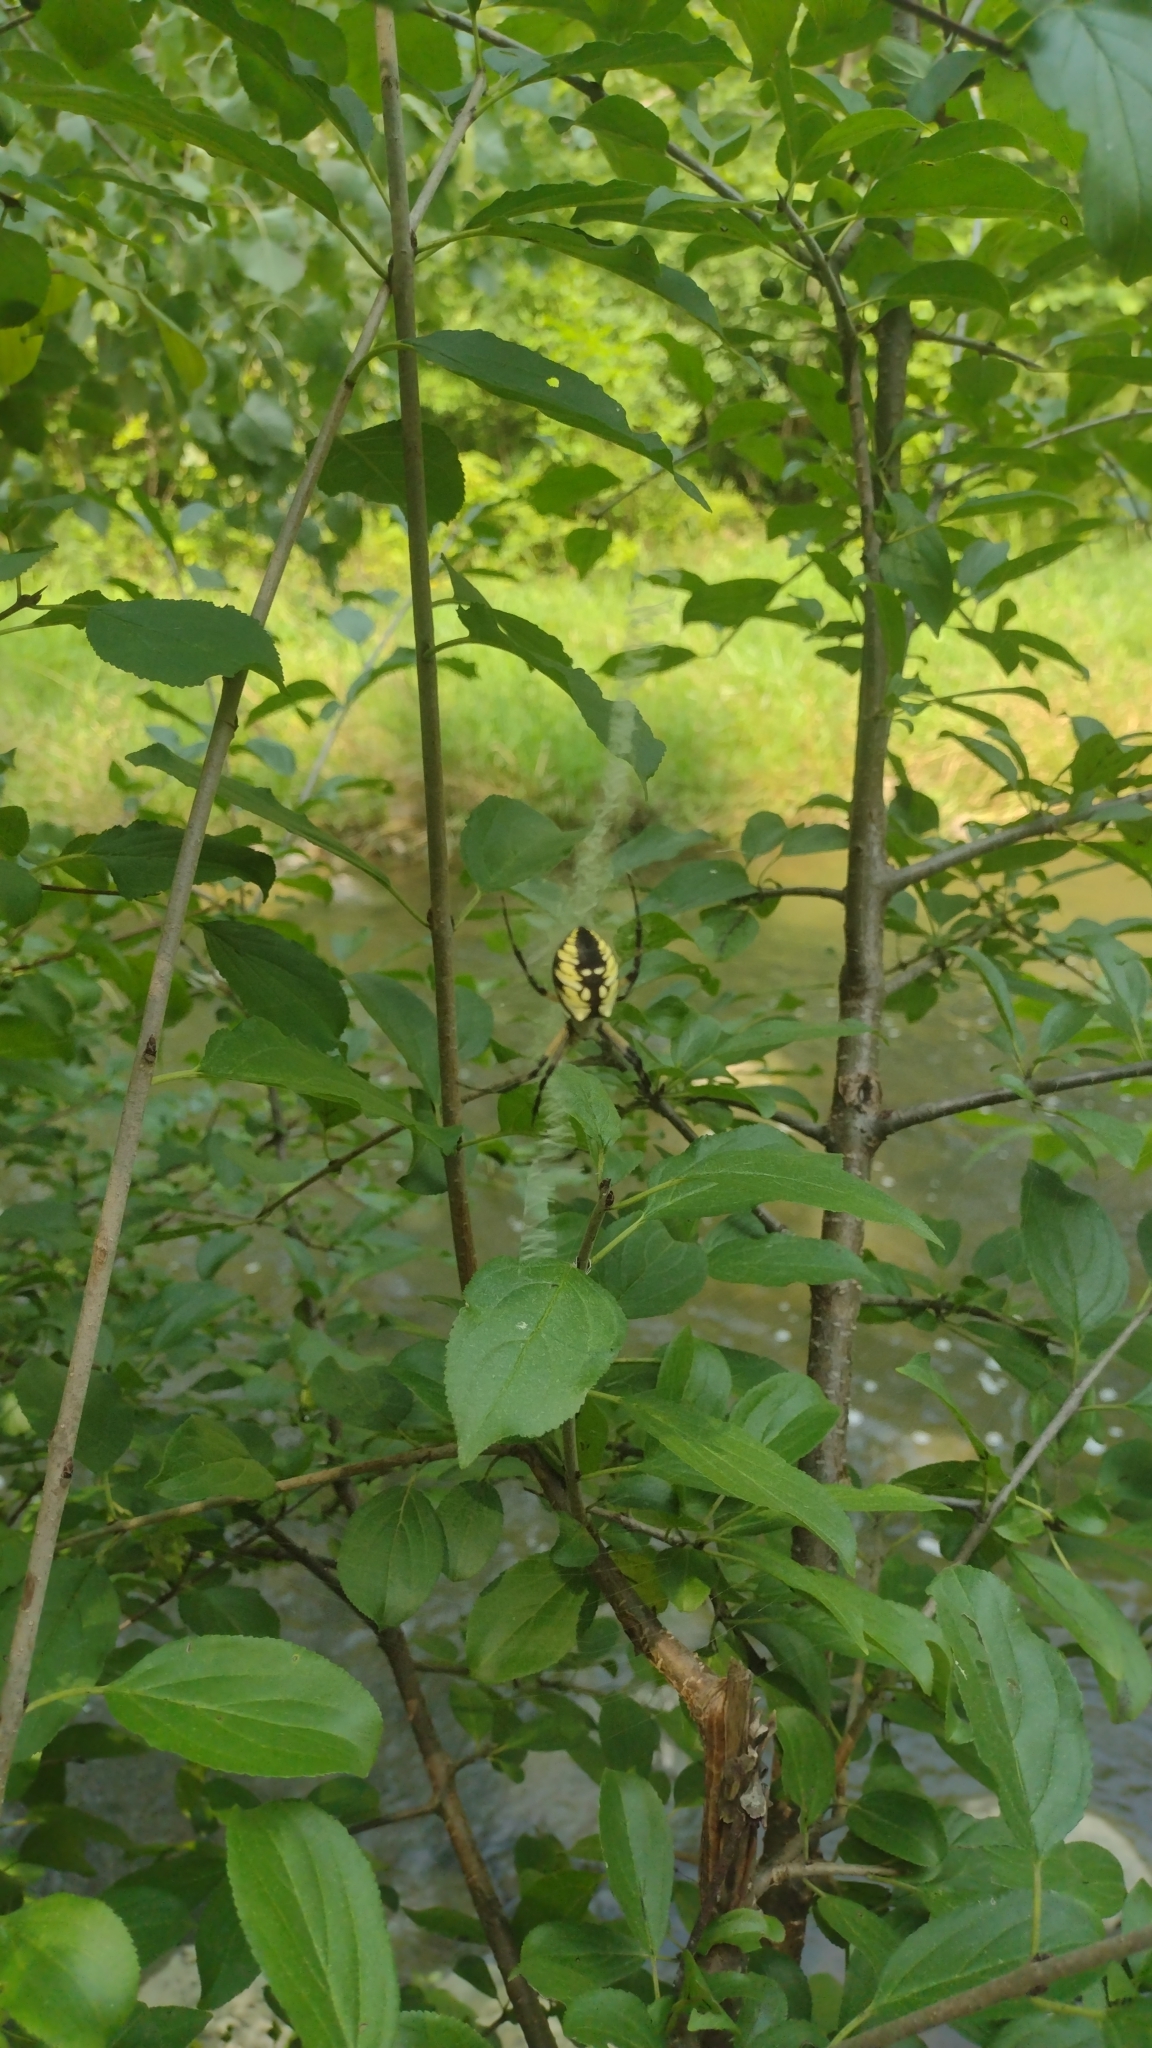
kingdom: Animalia
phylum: Arthropoda
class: Arachnida
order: Araneae
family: Araneidae
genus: Argiope
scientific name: Argiope aurantia
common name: Orb weavers
